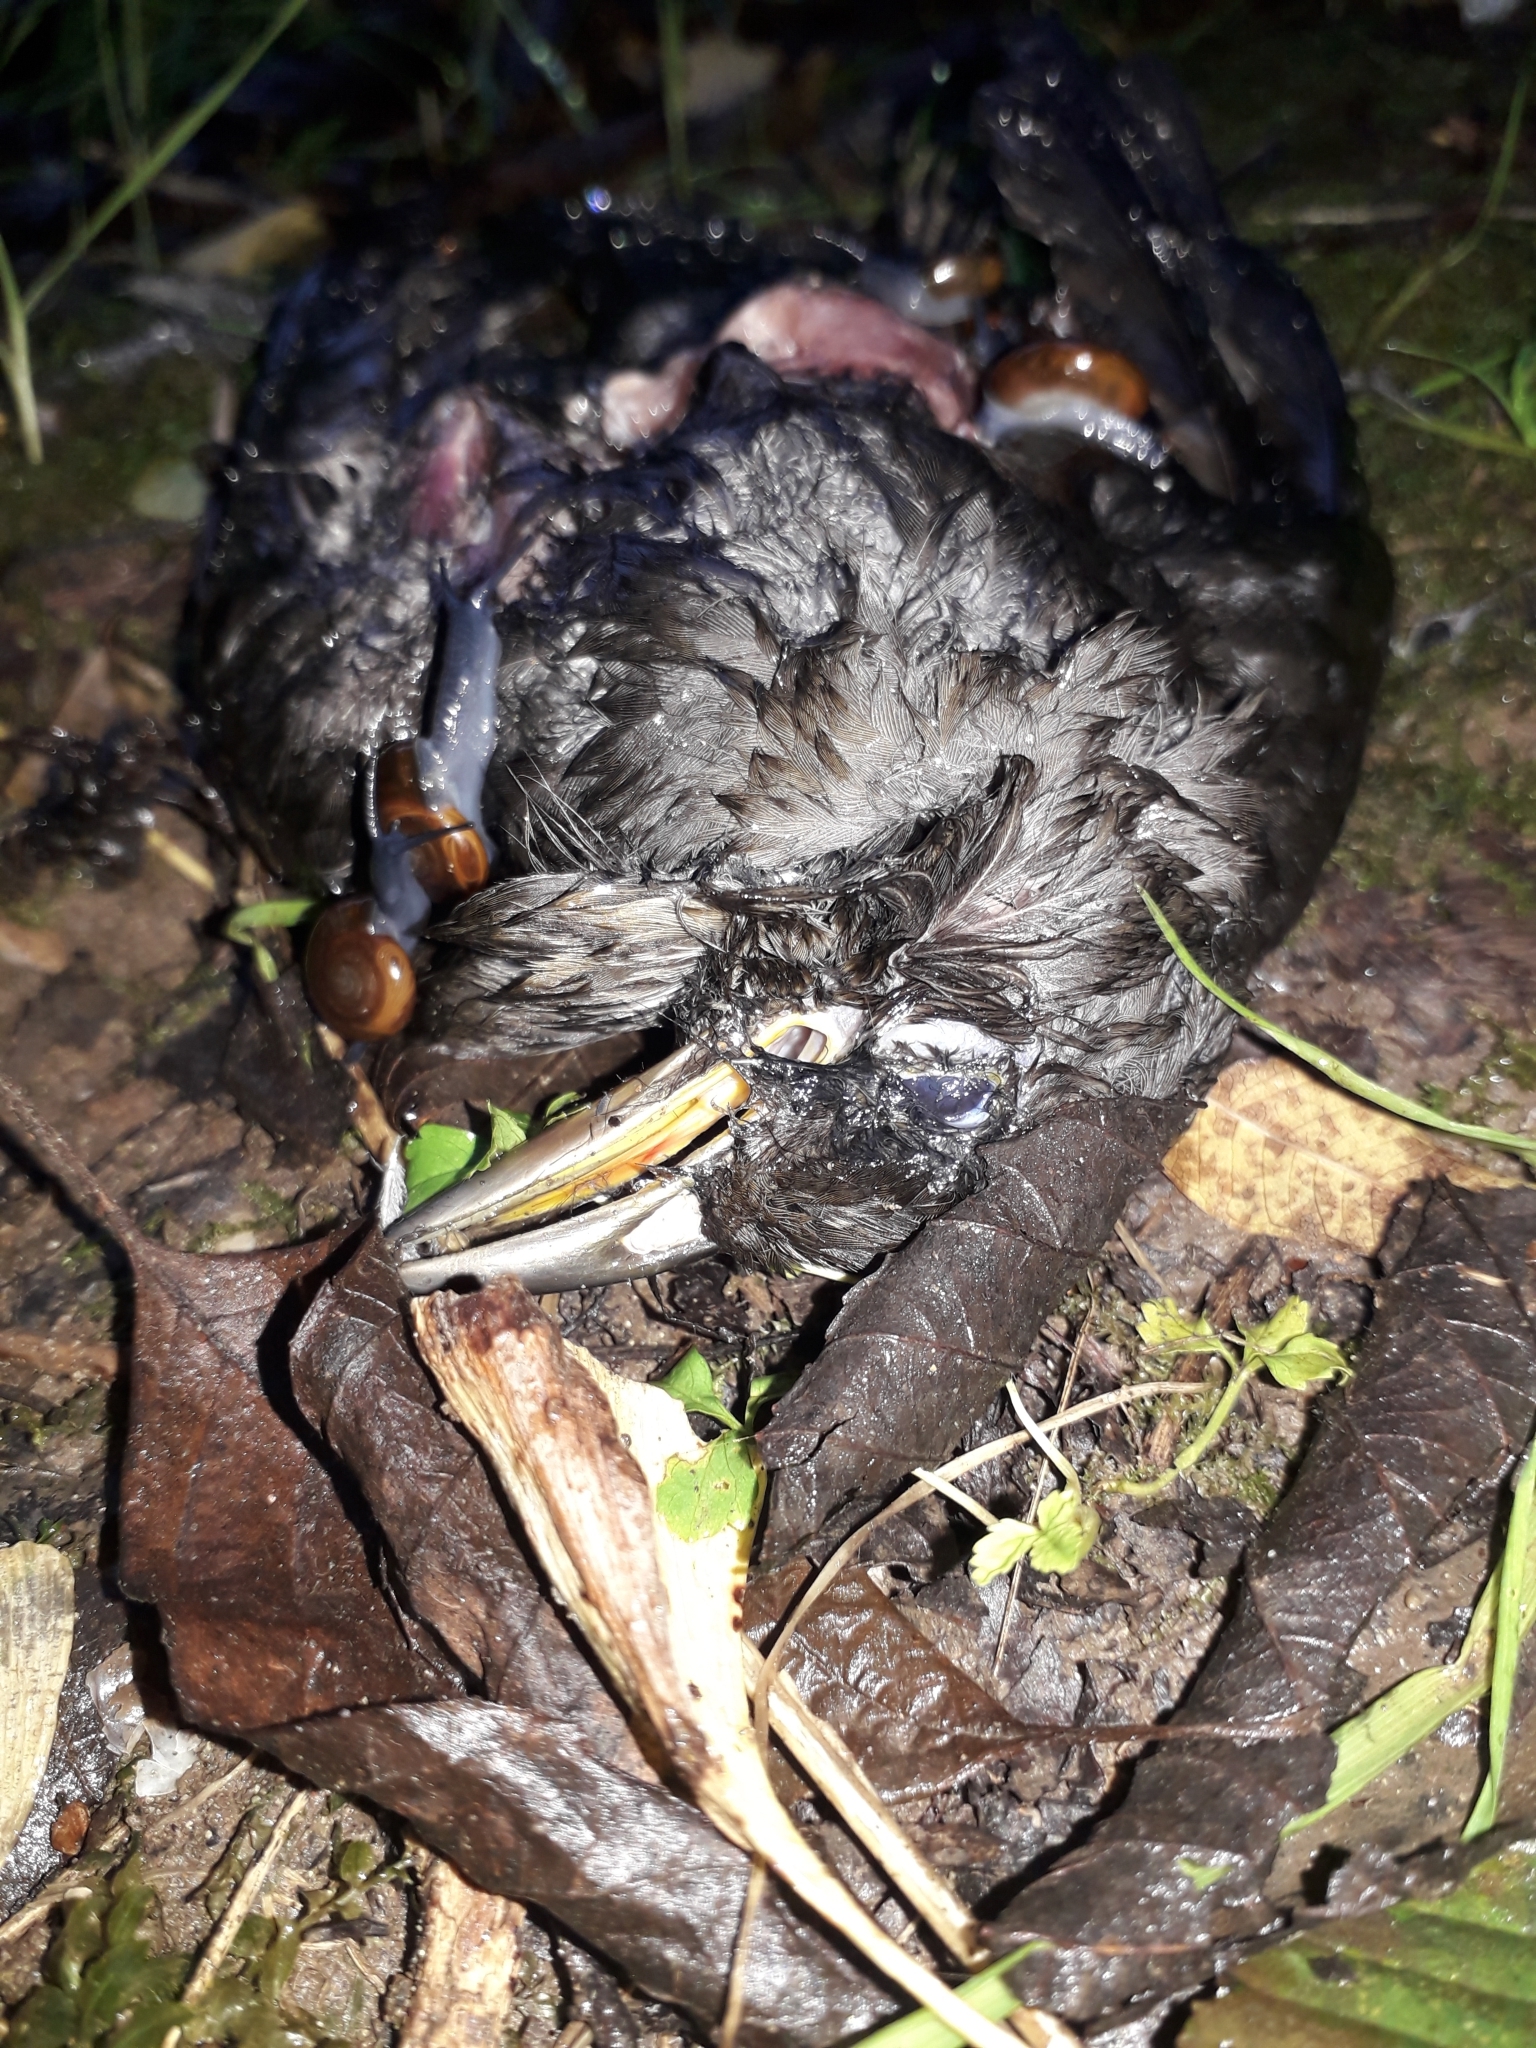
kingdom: Animalia
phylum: Chordata
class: Aves
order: Passeriformes
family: Turdidae
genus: Turdus
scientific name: Turdus merula
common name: Common blackbird
